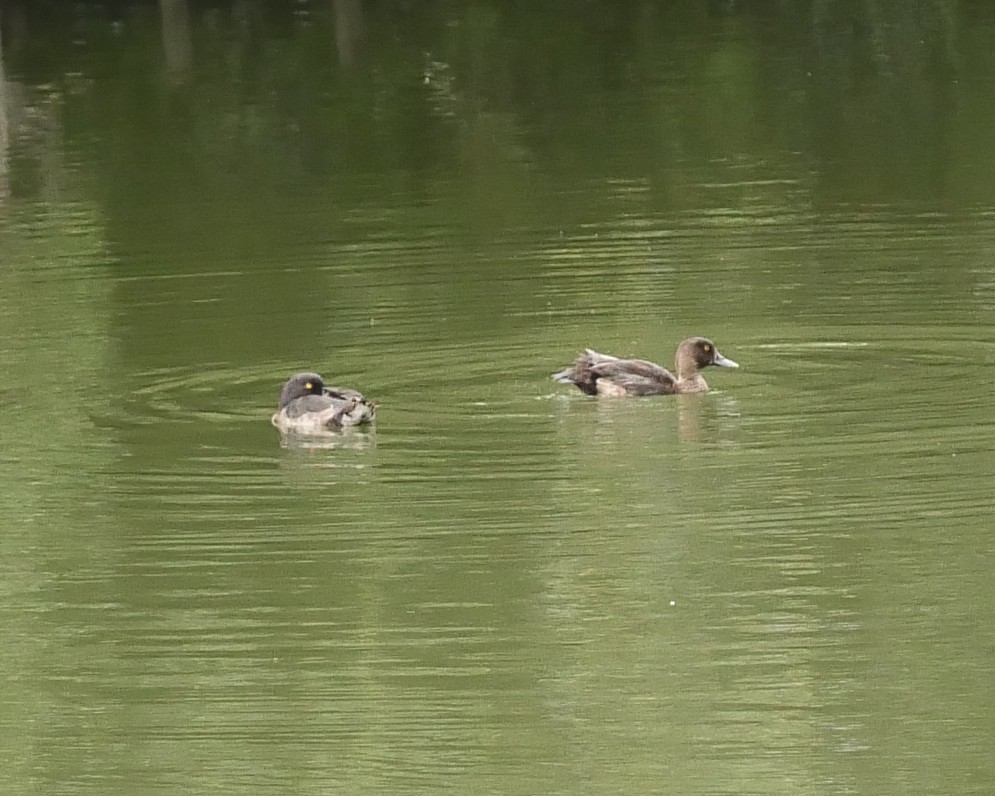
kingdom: Animalia
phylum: Chordata
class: Aves
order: Anseriformes
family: Anatidae
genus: Aythya
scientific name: Aythya fuligula
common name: Tufted duck
